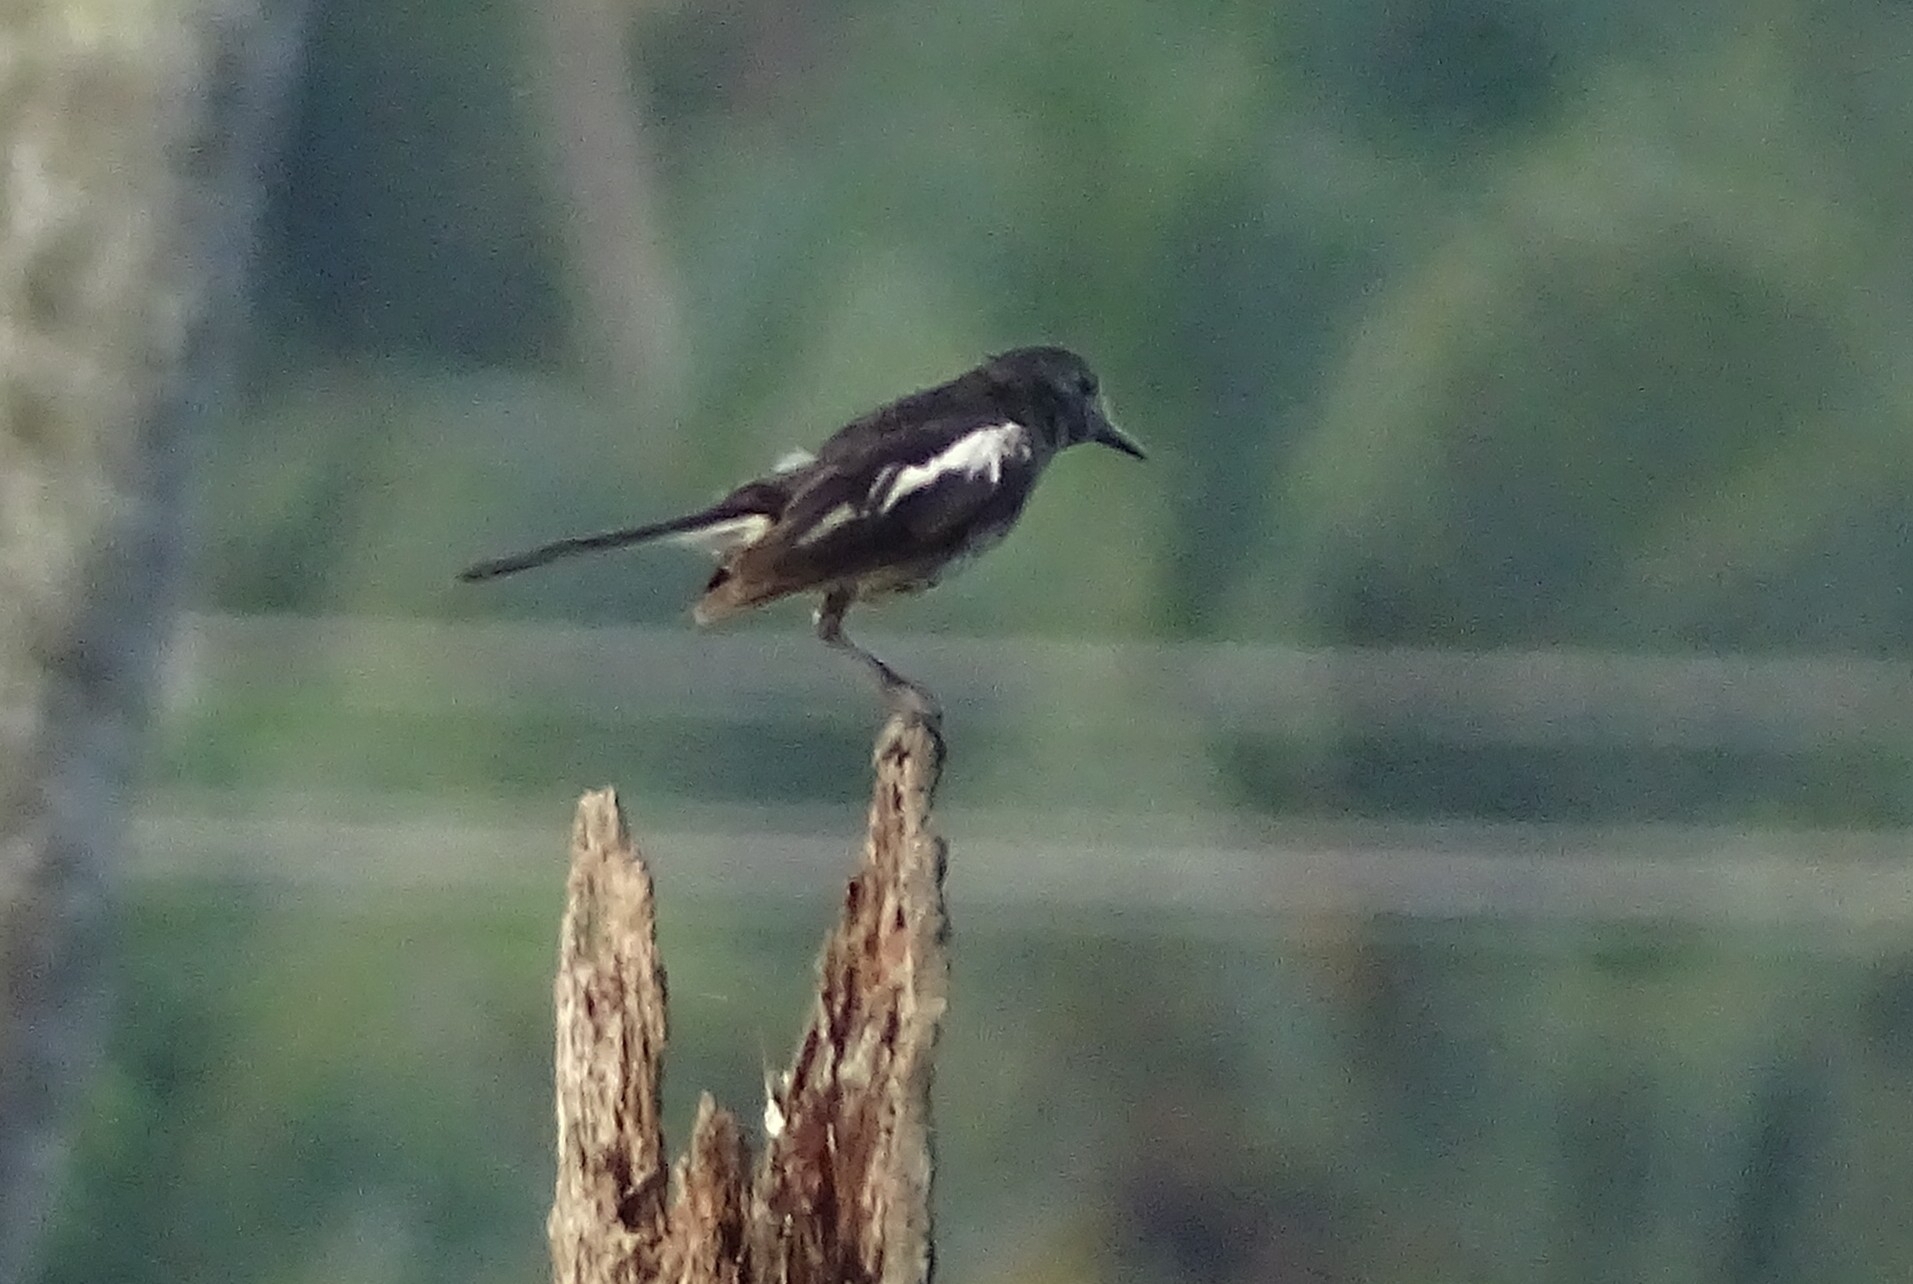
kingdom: Animalia
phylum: Chordata
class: Aves
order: Passeriformes
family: Muscicapidae
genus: Copsychus
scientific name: Copsychus saularis
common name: Oriental magpie-robin
